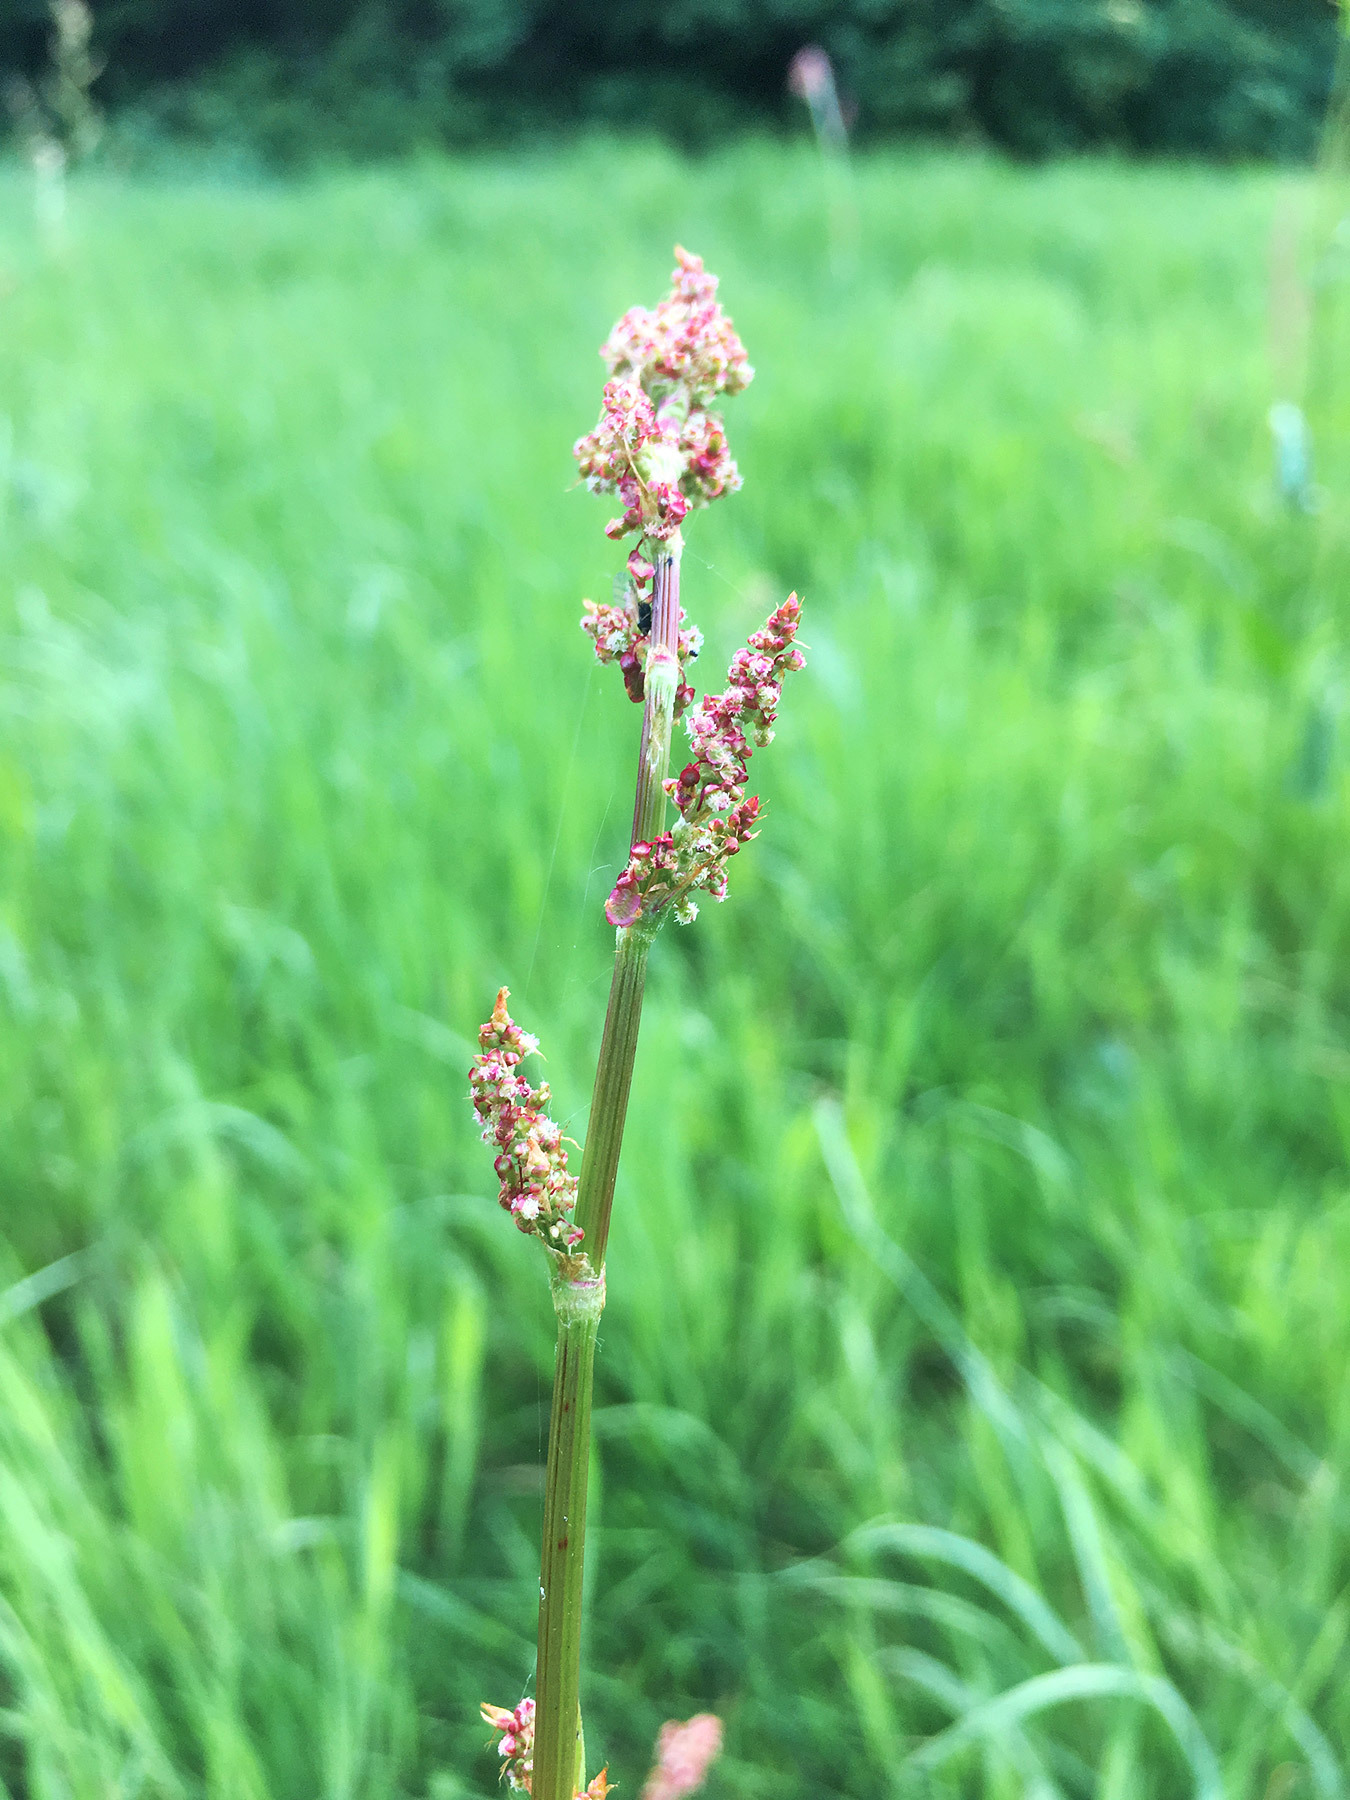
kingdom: Plantae
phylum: Tracheophyta
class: Magnoliopsida
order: Caryophyllales
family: Polygonaceae
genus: Rumex
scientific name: Rumex acetosa
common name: Garden sorrel
